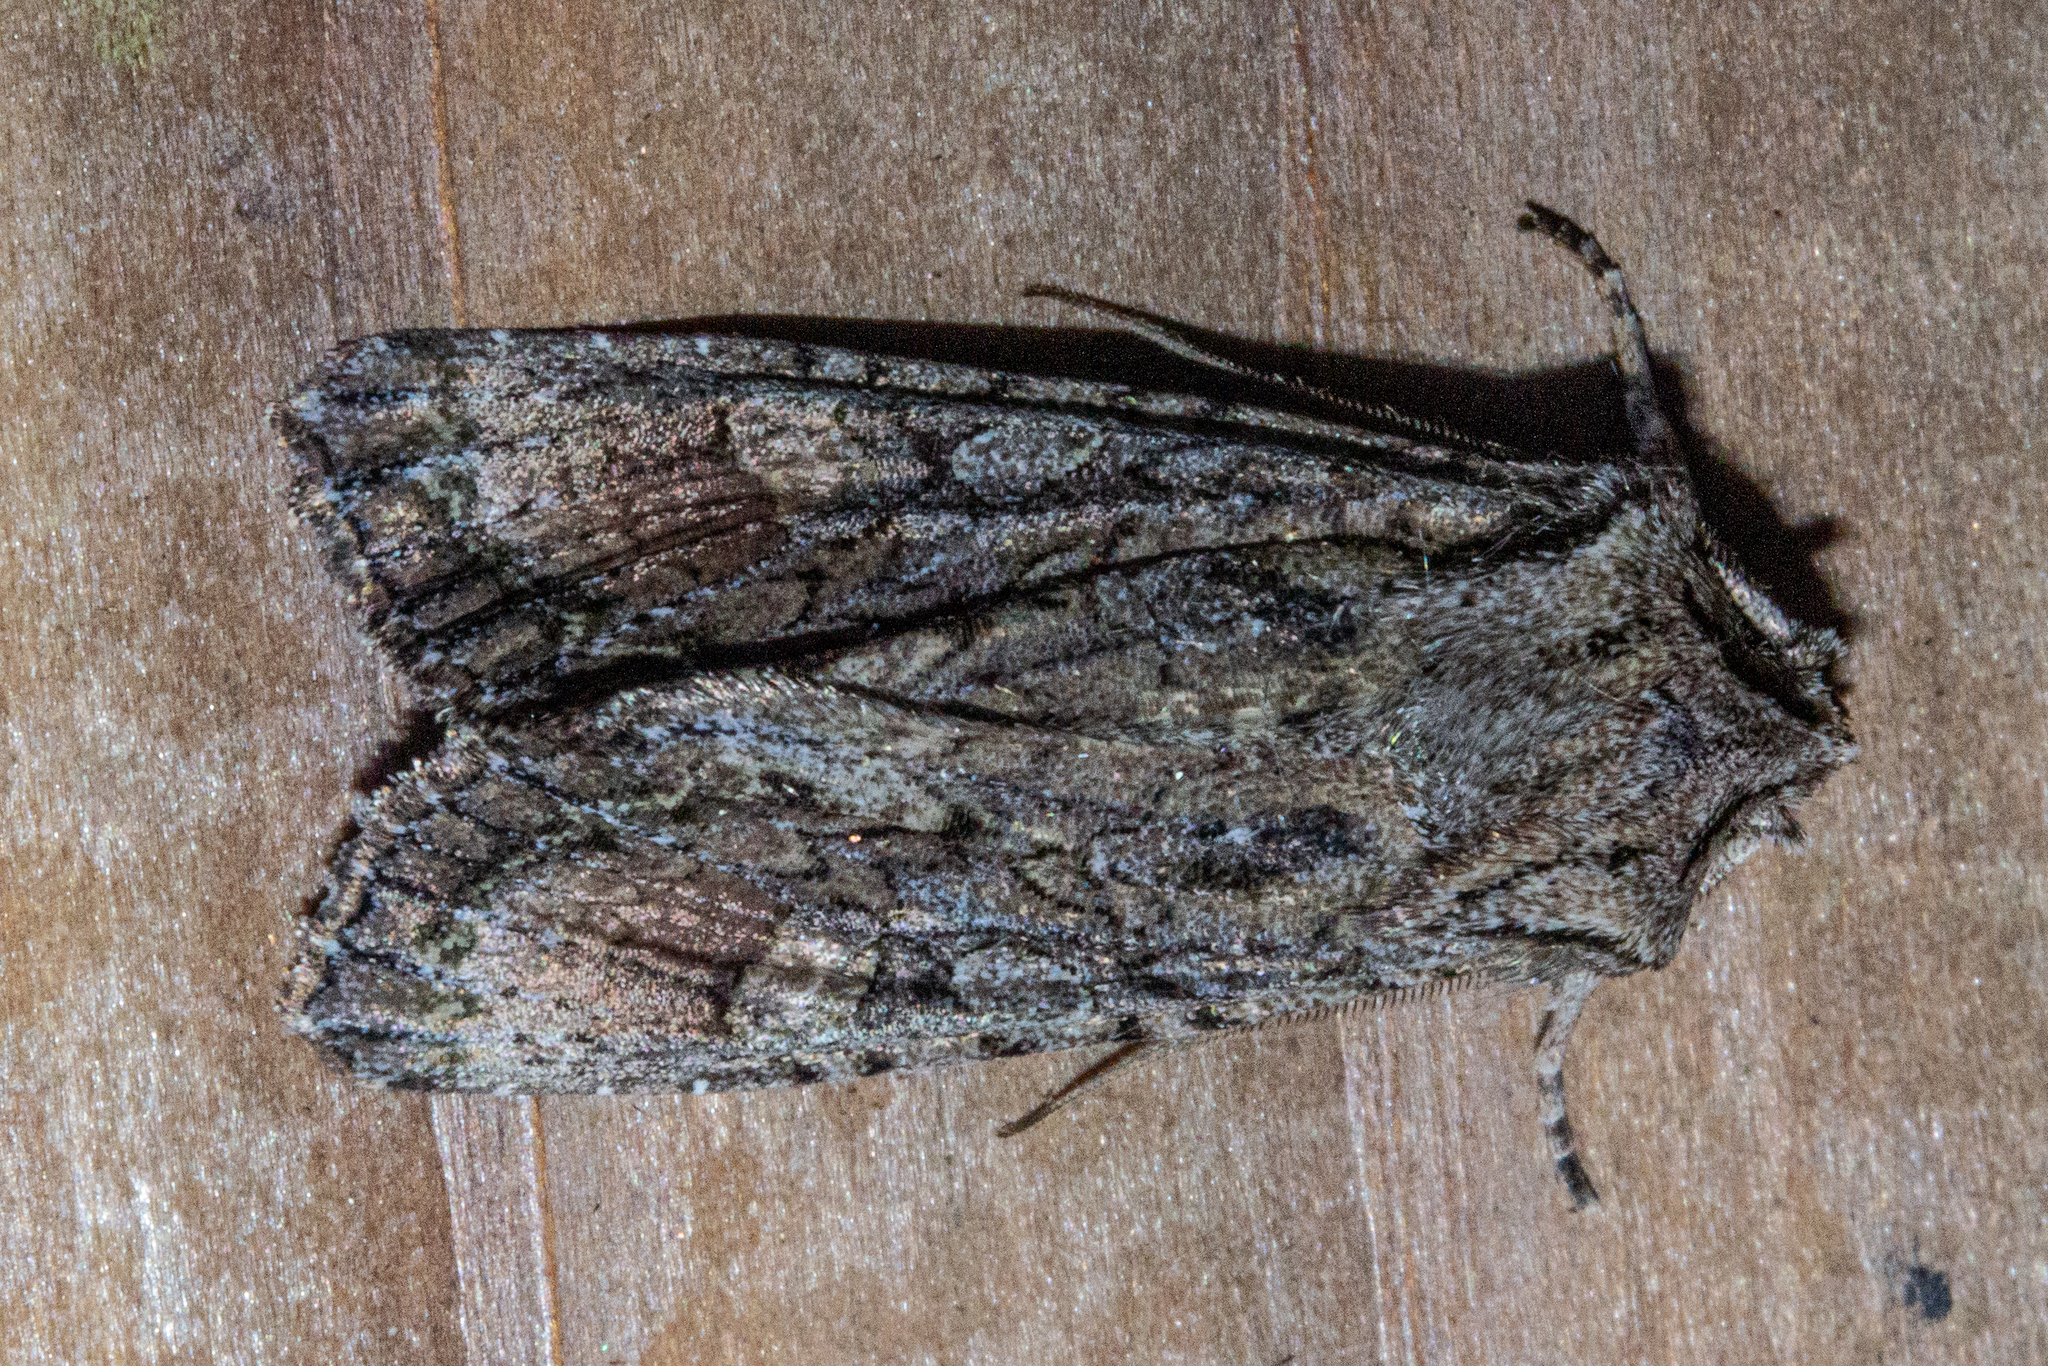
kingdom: Animalia
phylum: Arthropoda
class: Insecta
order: Lepidoptera
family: Noctuidae
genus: Ichneutica
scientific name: Ichneutica mutans
